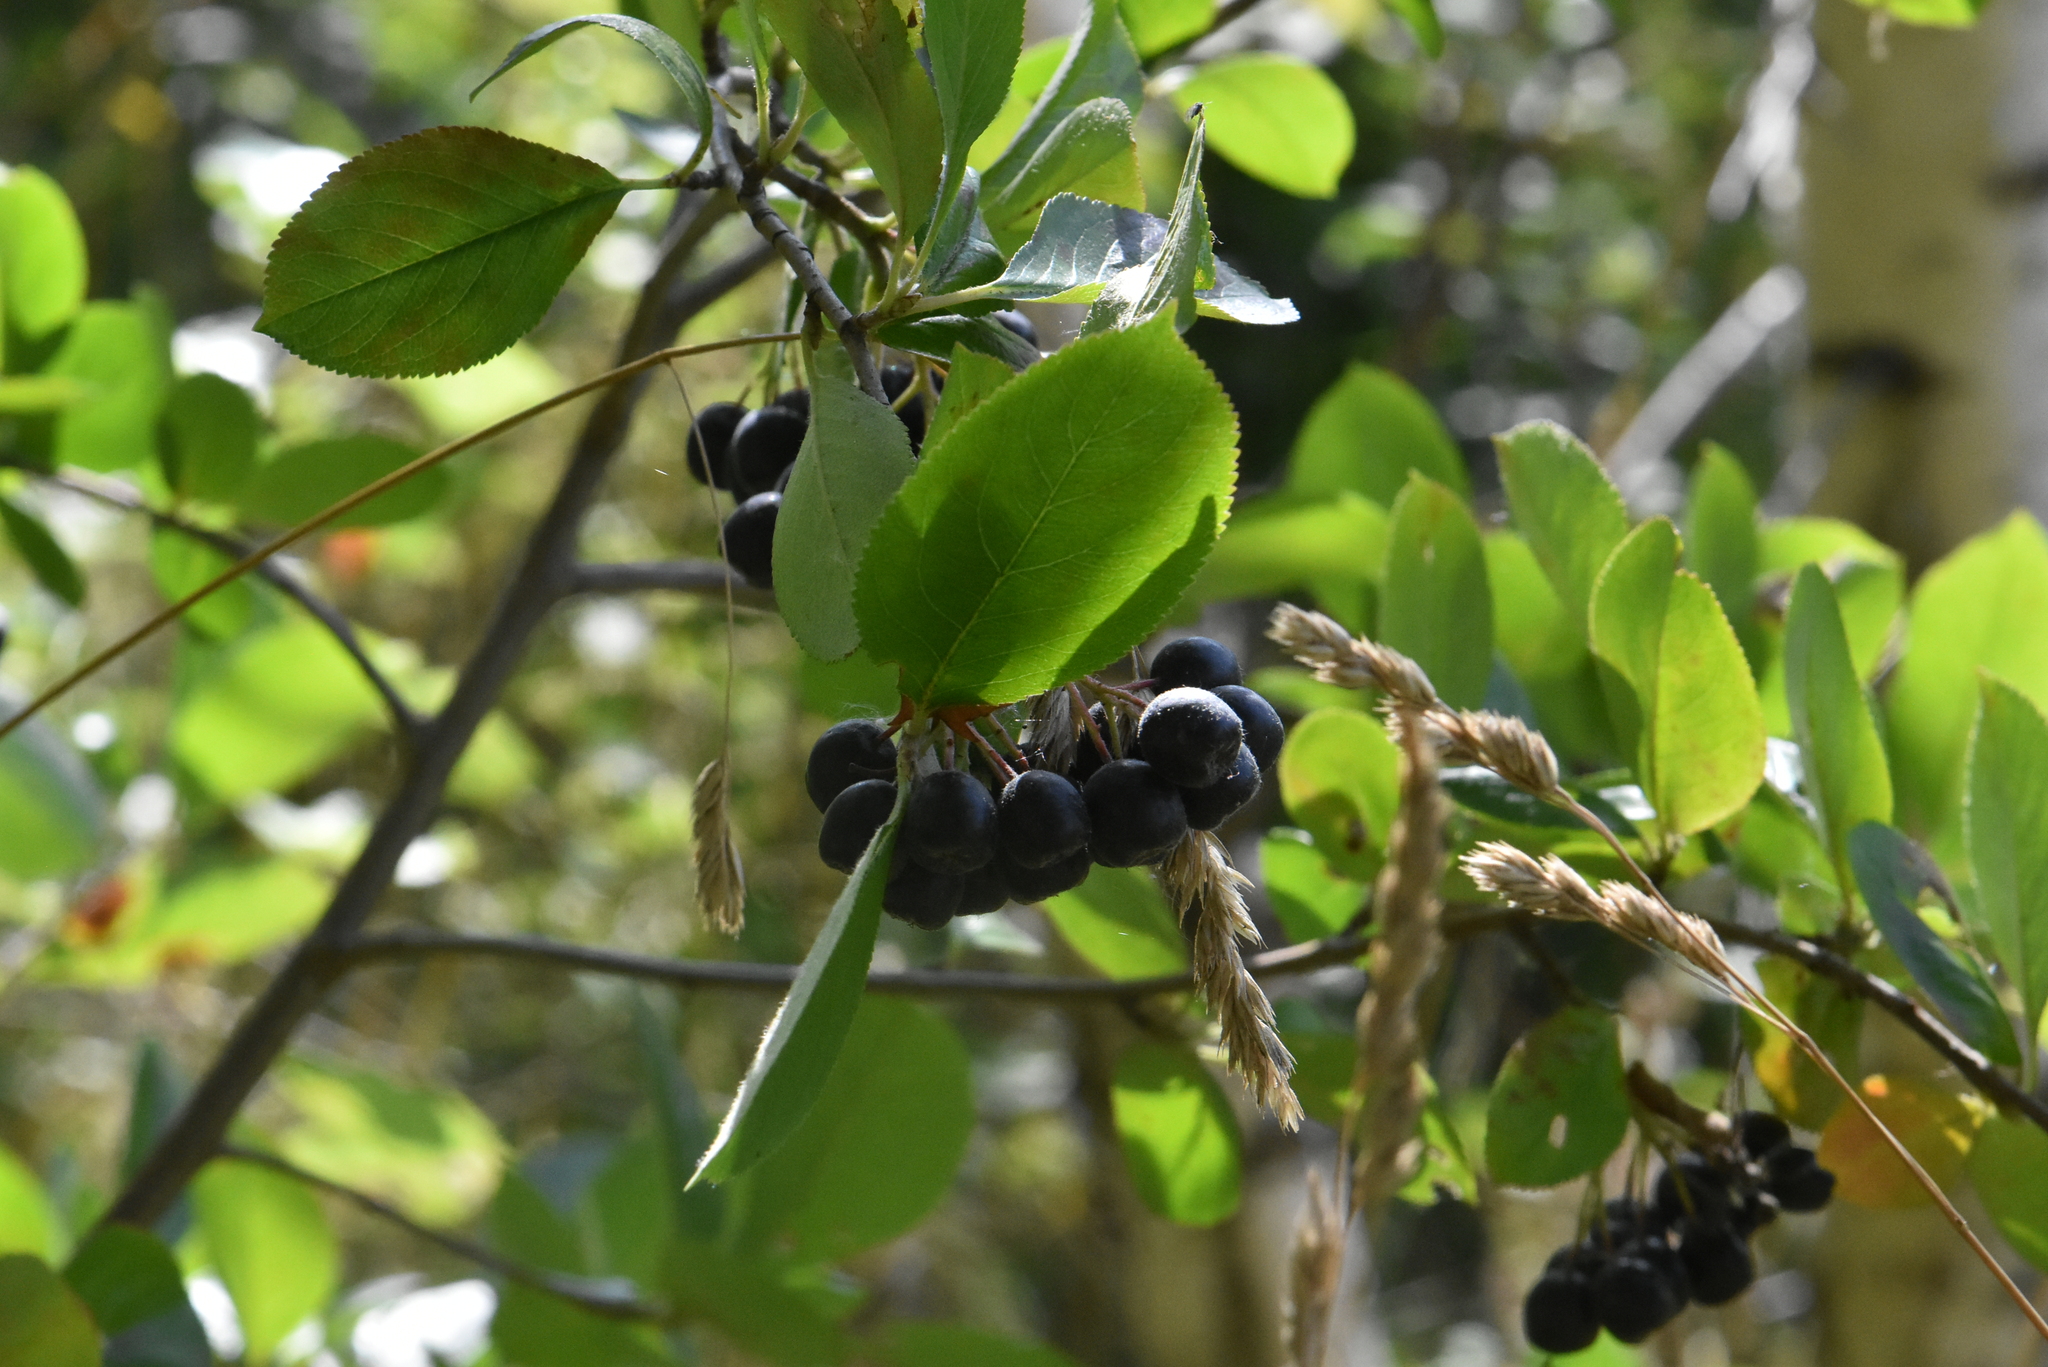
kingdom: Plantae
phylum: Tracheophyta
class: Magnoliopsida
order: Rosales
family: Rosaceae
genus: Sorbaronia
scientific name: Sorbaronia arsenii
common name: Arsène's mountain-ash
